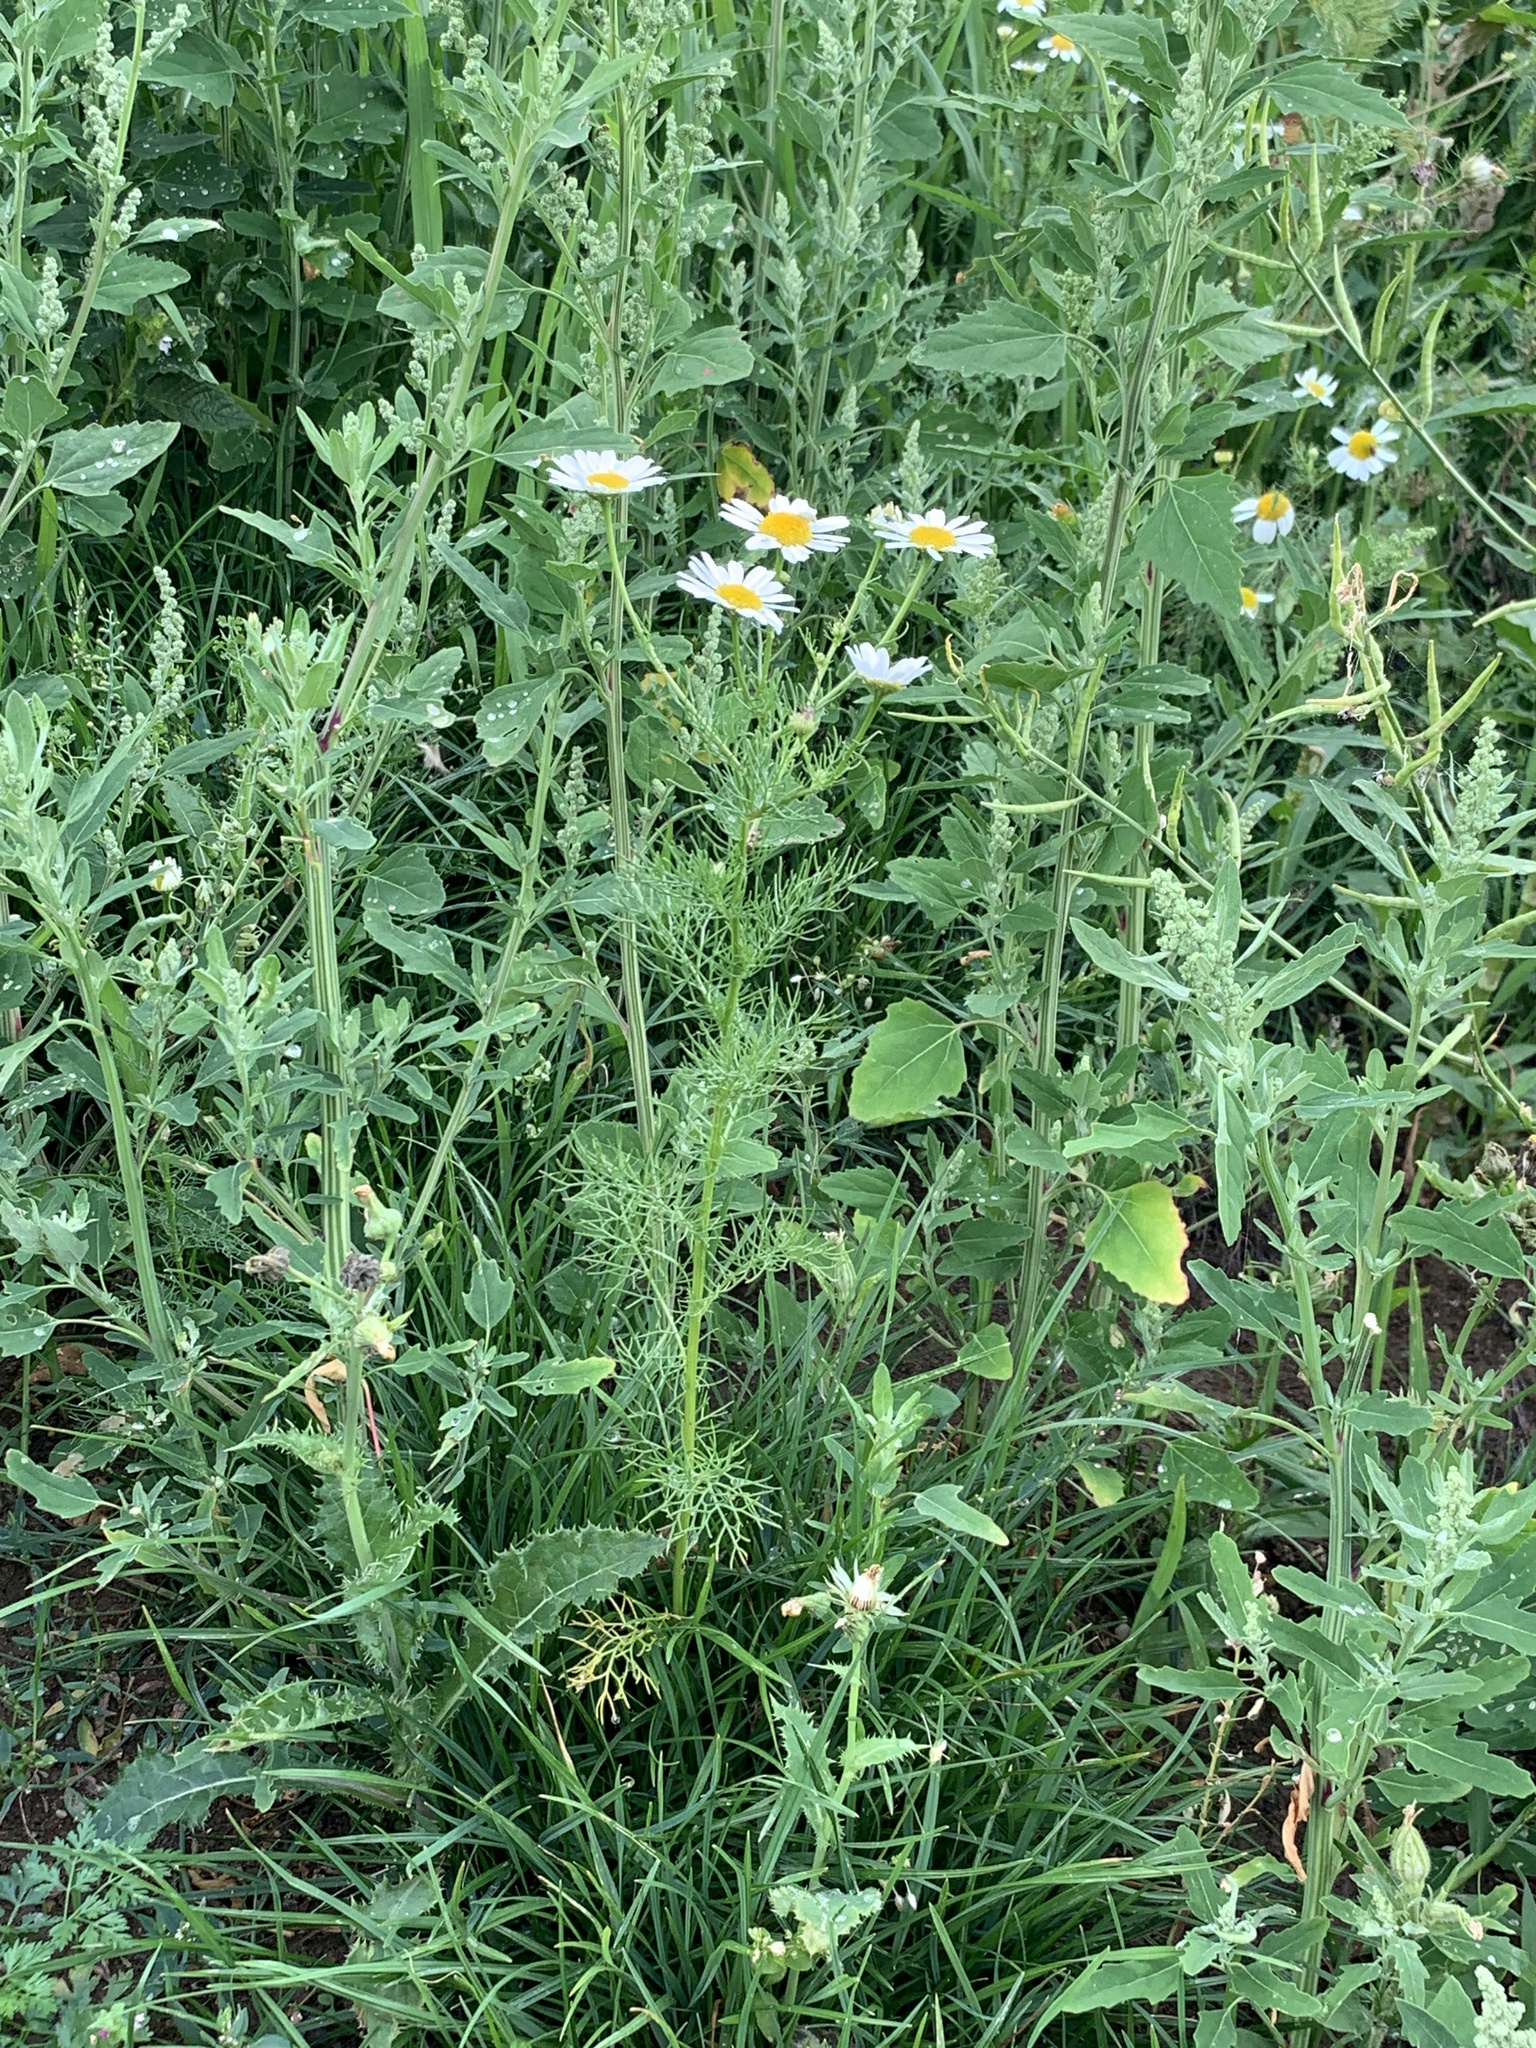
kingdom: Plantae
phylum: Tracheophyta
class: Magnoliopsida
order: Asterales
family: Asteraceae
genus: Tripleurospermum
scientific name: Tripleurospermum inodorum
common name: Scentless mayweed
